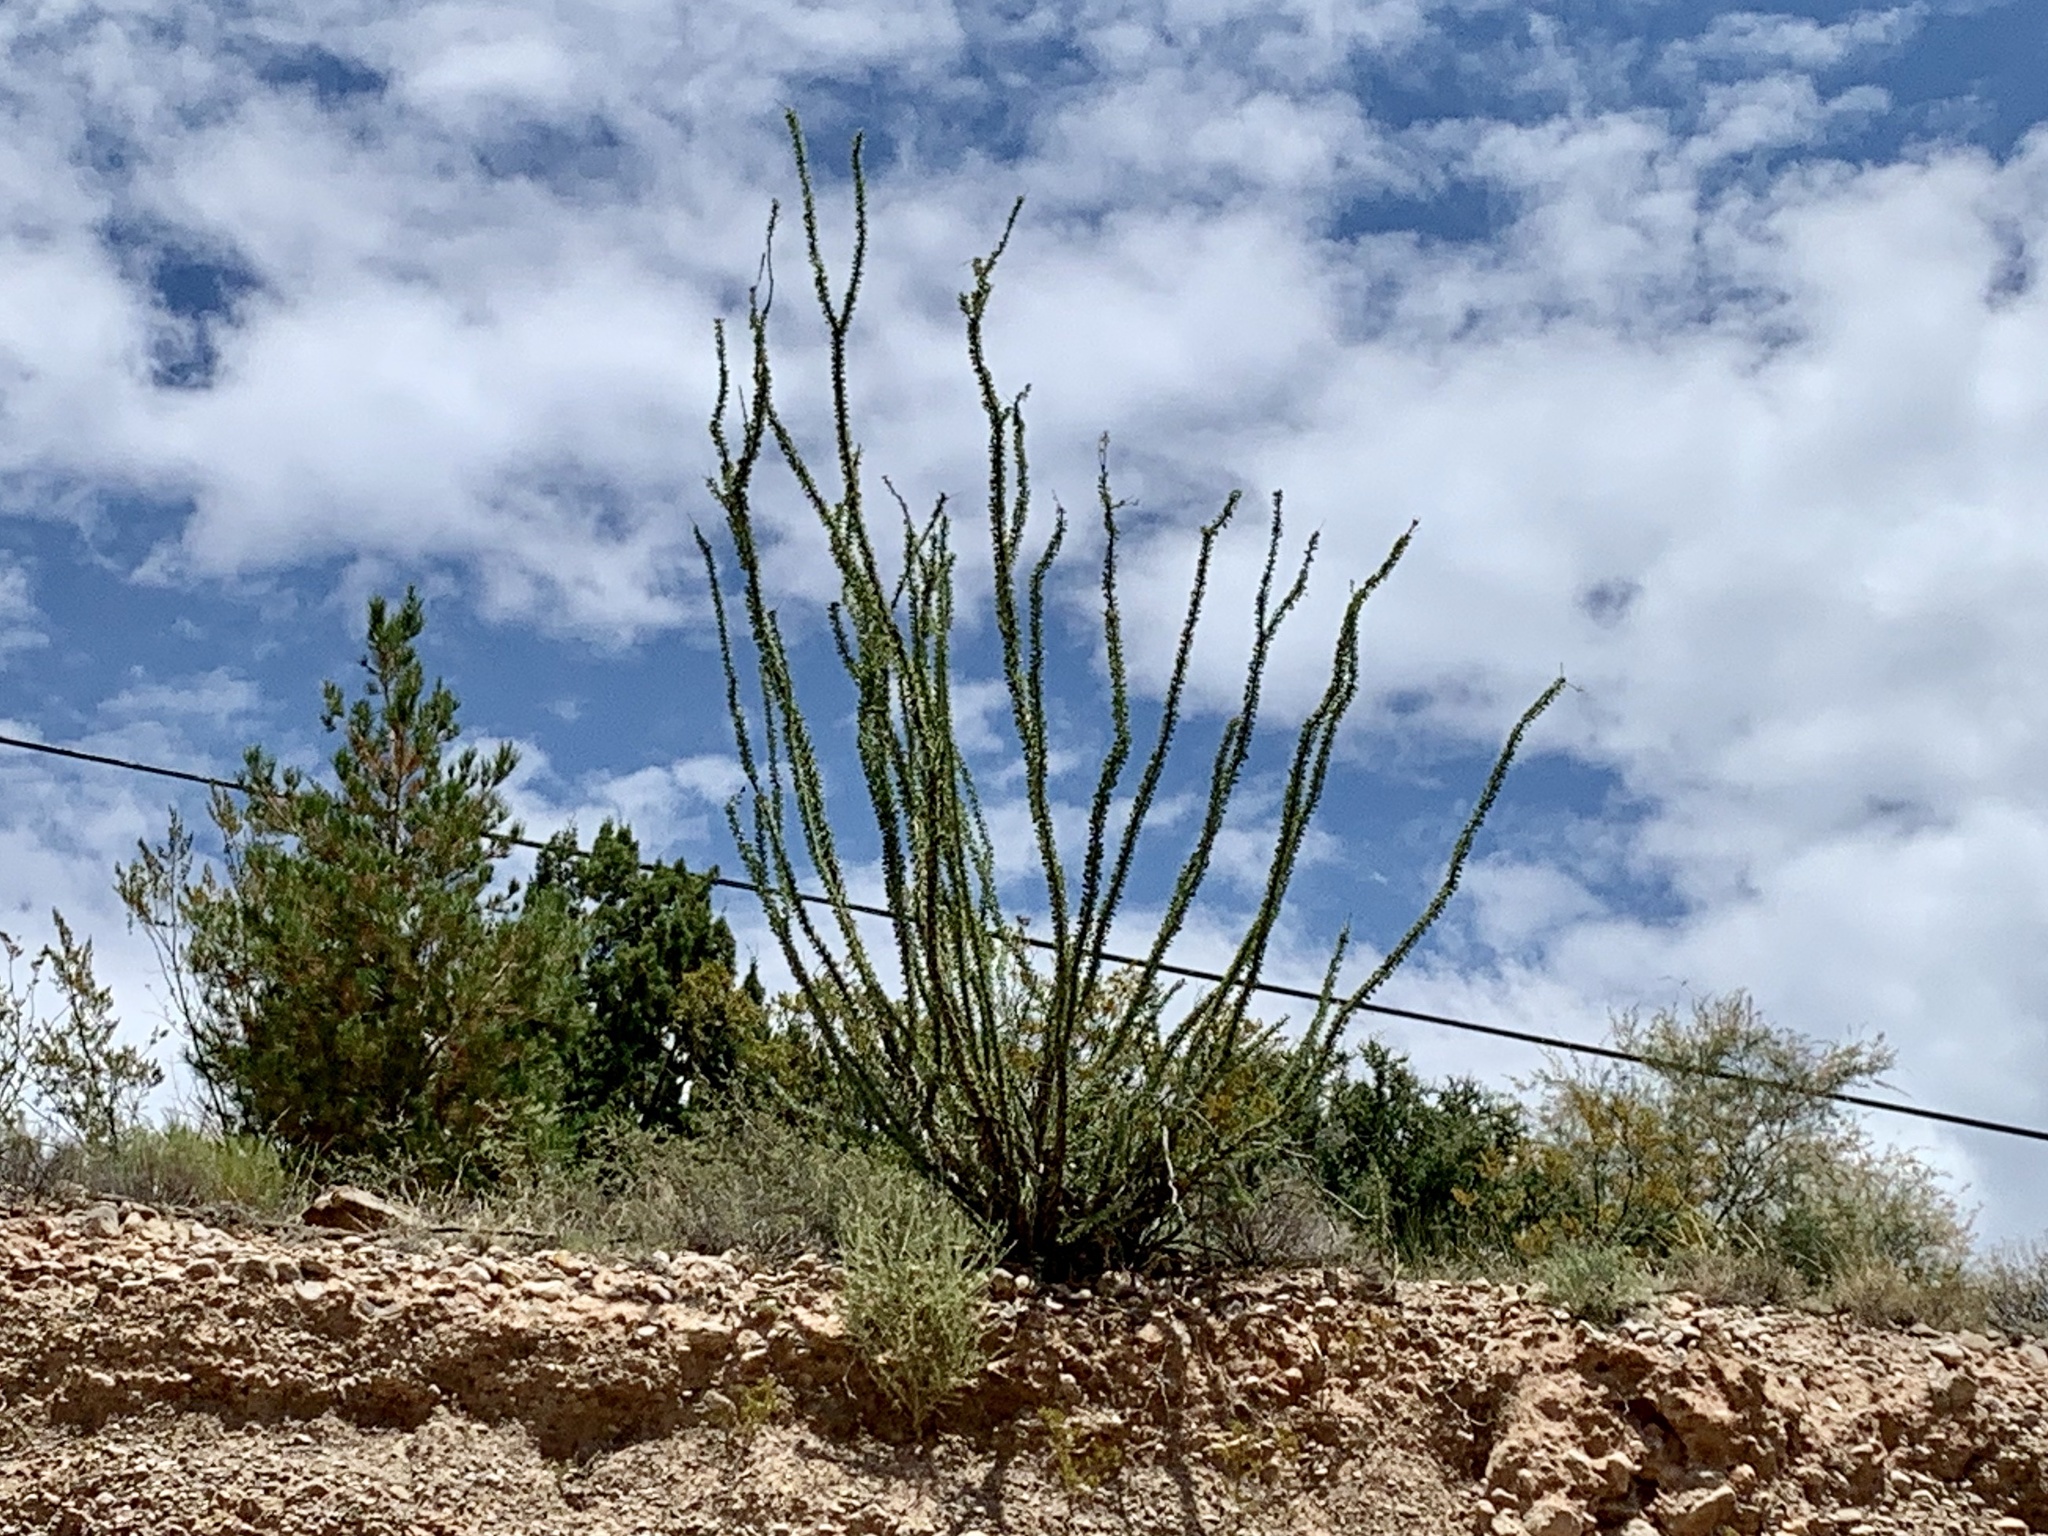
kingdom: Plantae
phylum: Tracheophyta
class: Magnoliopsida
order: Ericales
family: Fouquieriaceae
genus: Fouquieria
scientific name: Fouquieria splendens
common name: Vine-cactus
